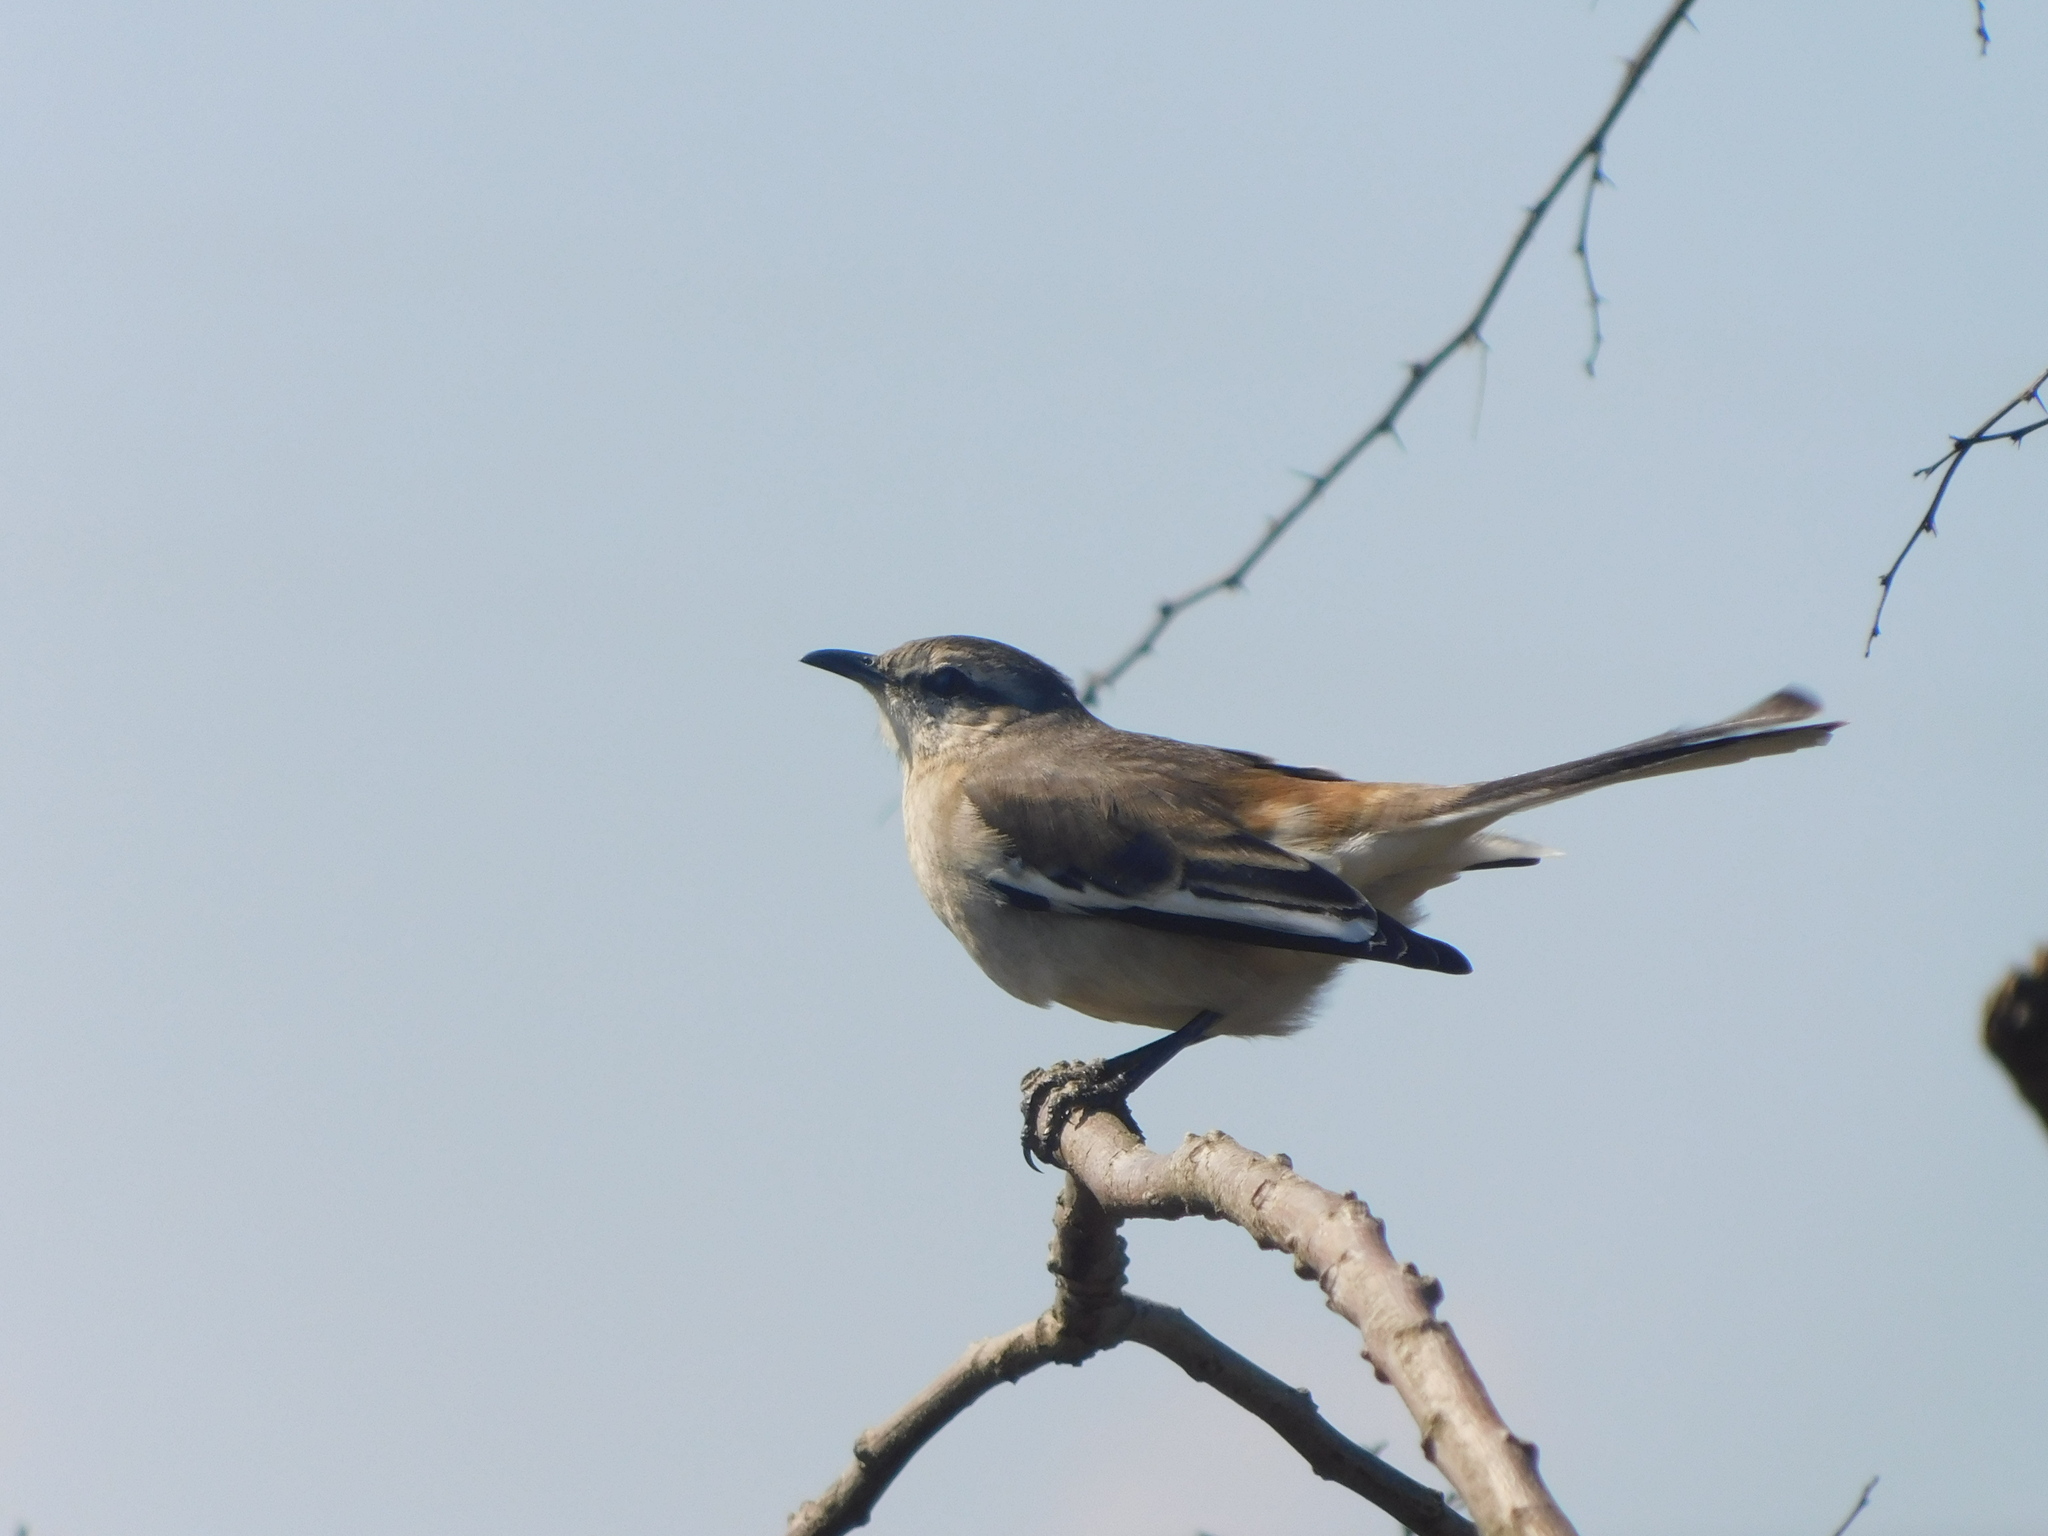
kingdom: Animalia
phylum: Chordata
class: Aves
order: Passeriformes
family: Mimidae
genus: Mimus
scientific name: Mimus triurus
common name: White-banded mockingbird
